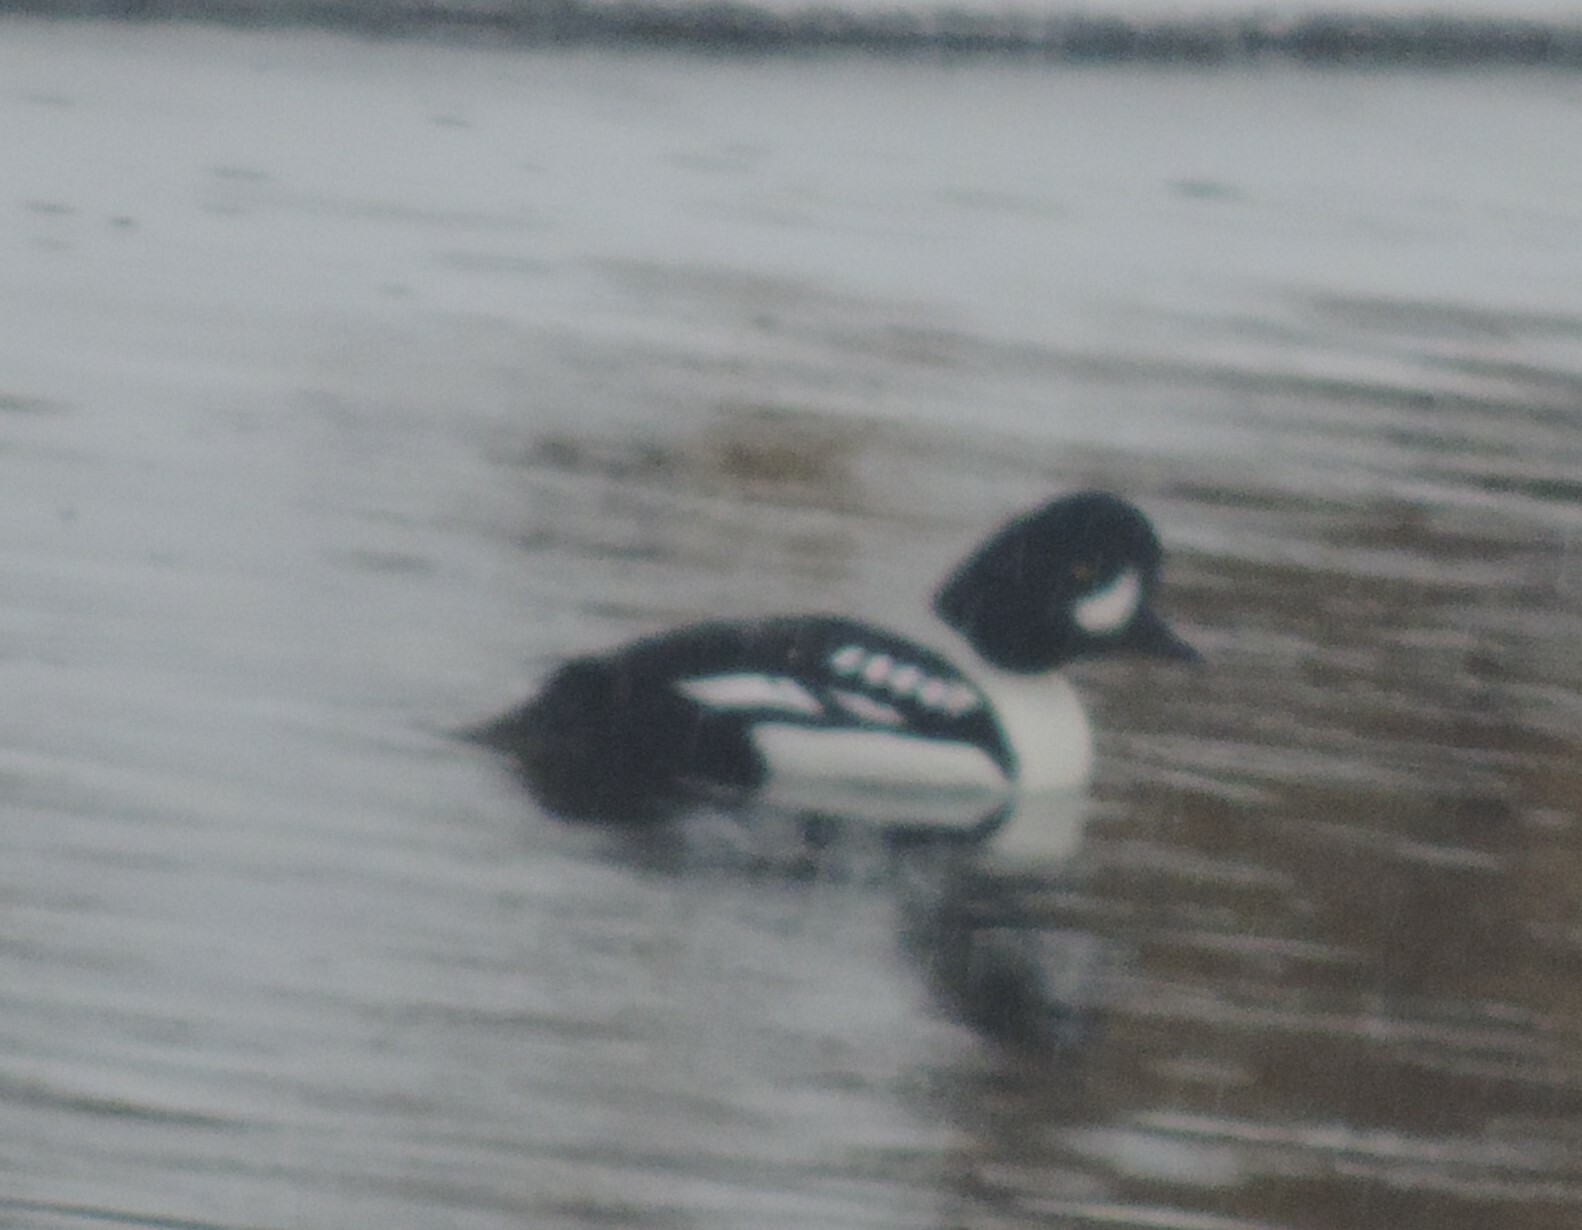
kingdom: Animalia
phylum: Chordata
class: Aves
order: Anseriformes
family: Anatidae
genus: Bucephala
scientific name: Bucephala islandica
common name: Barrow's goldeneye
